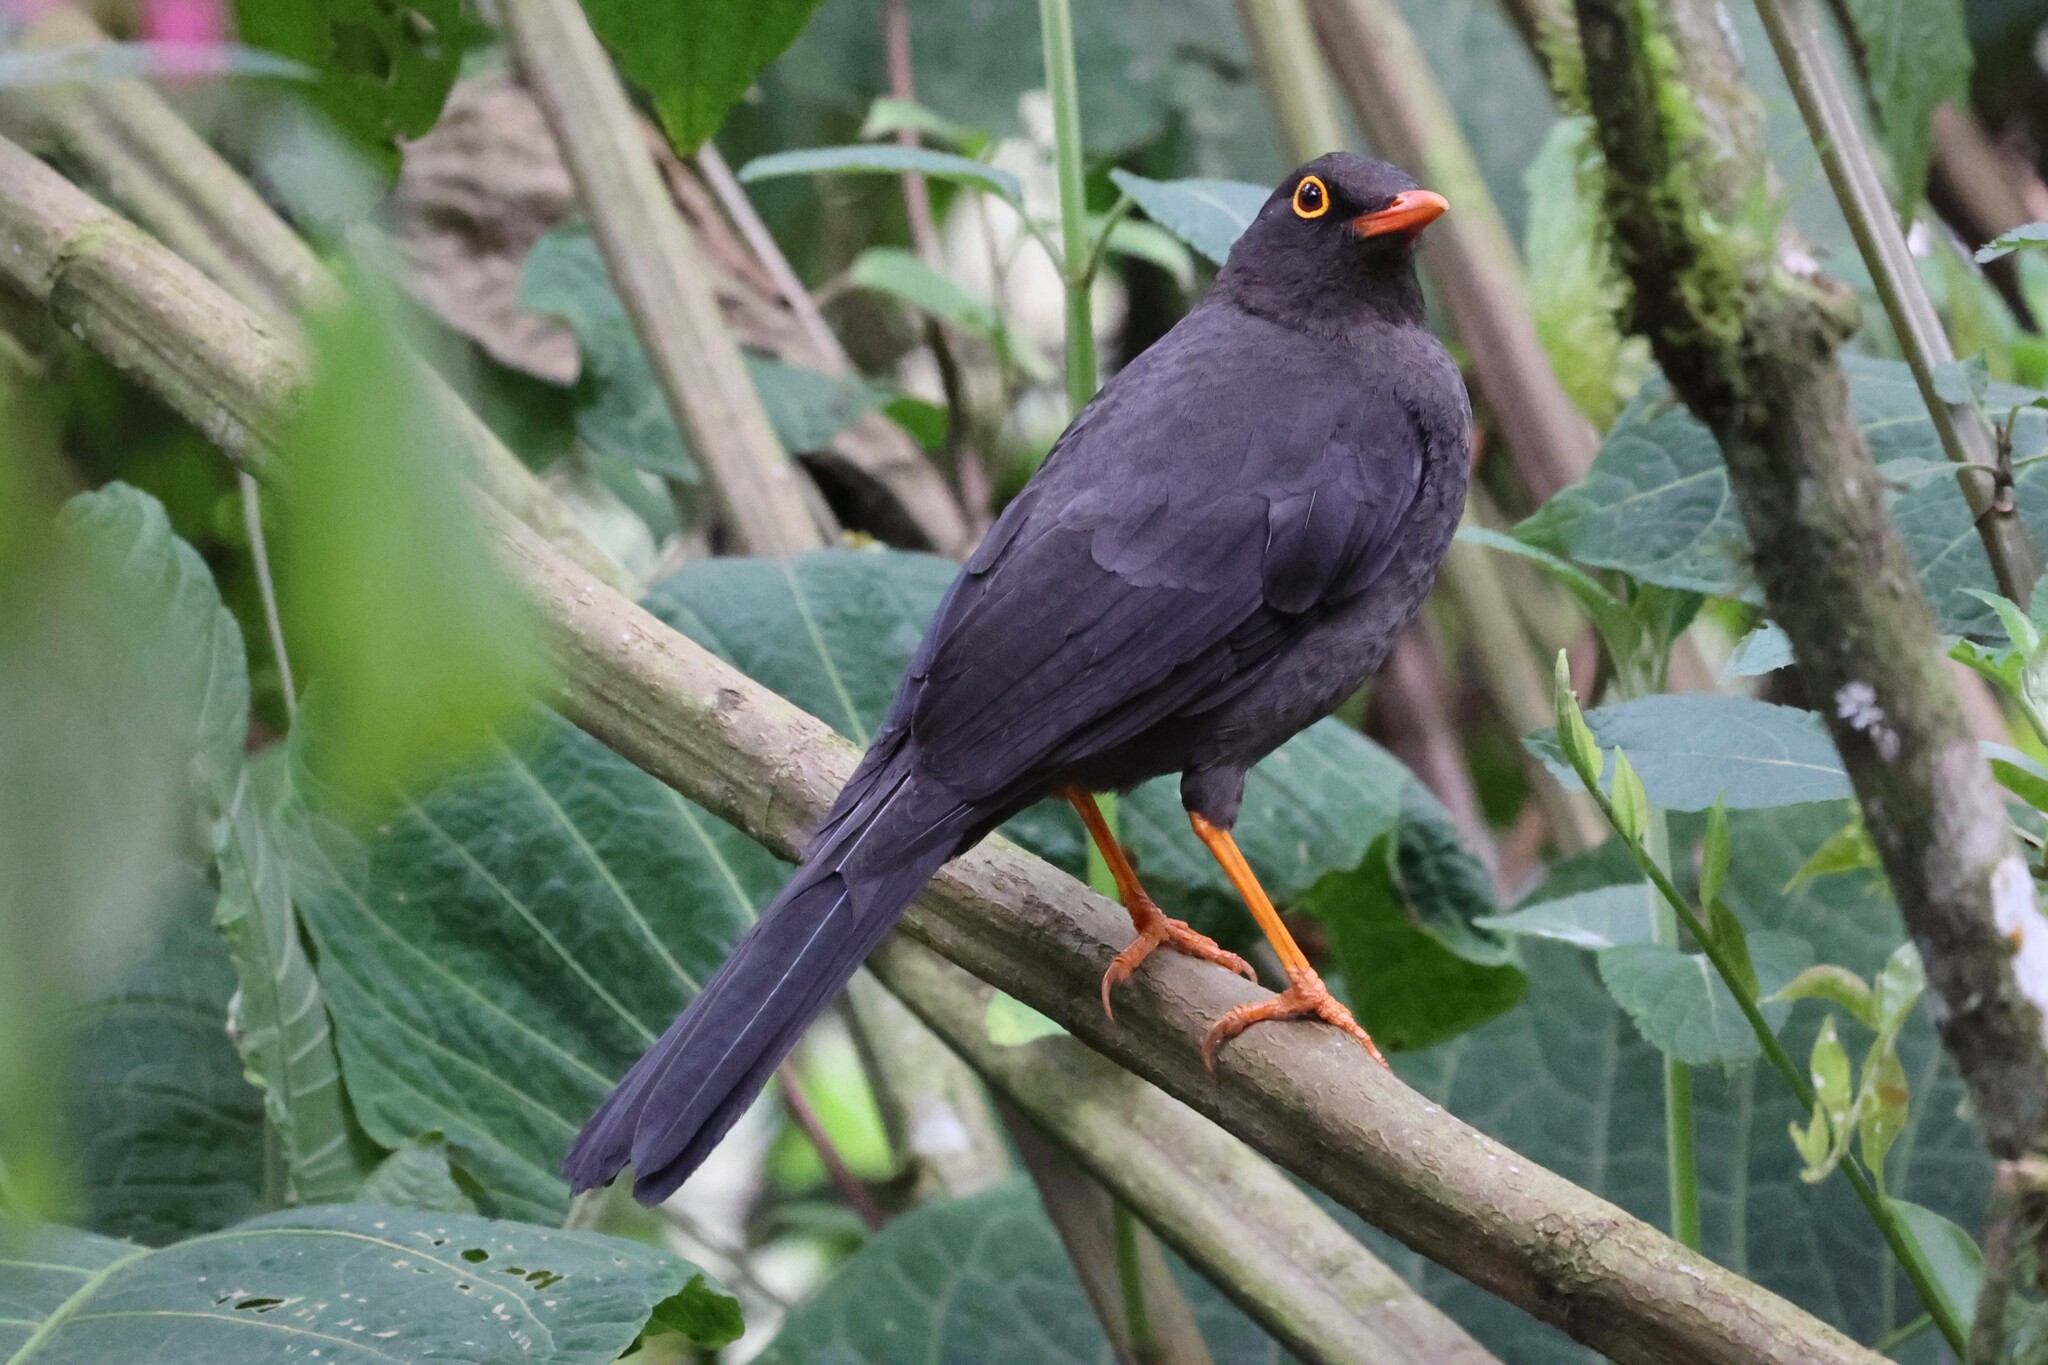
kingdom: Animalia
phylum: Chordata
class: Aves
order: Passeriformes
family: Turdidae
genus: Turdus
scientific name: Turdus fuscater
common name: Great thrush
